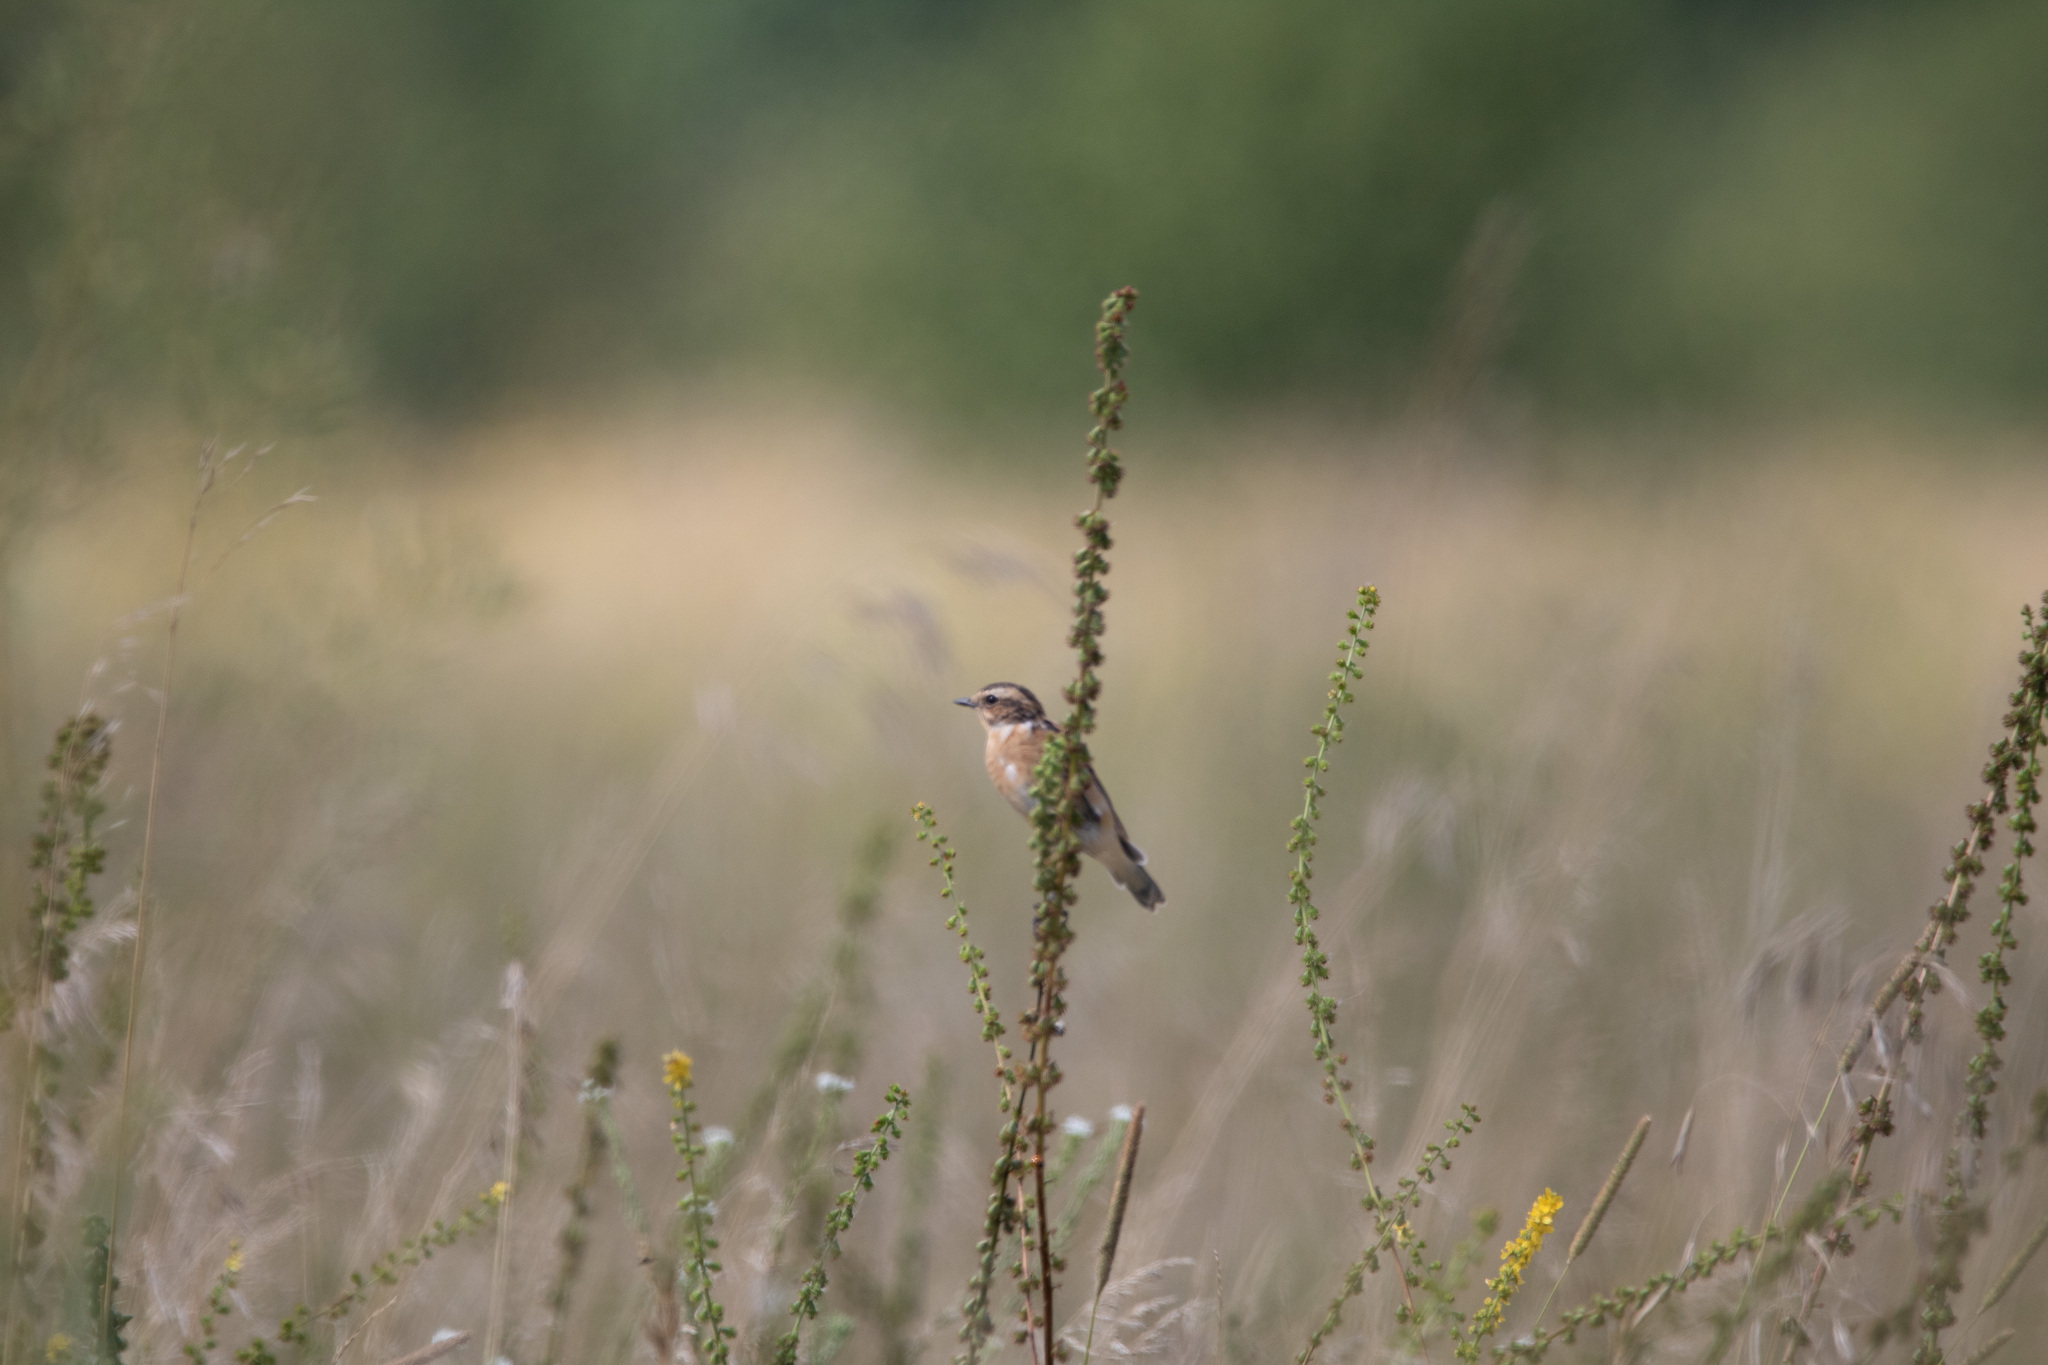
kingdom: Animalia
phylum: Chordata
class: Aves
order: Passeriformes
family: Muscicapidae
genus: Saxicola
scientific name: Saxicola rubetra
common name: Whinchat
